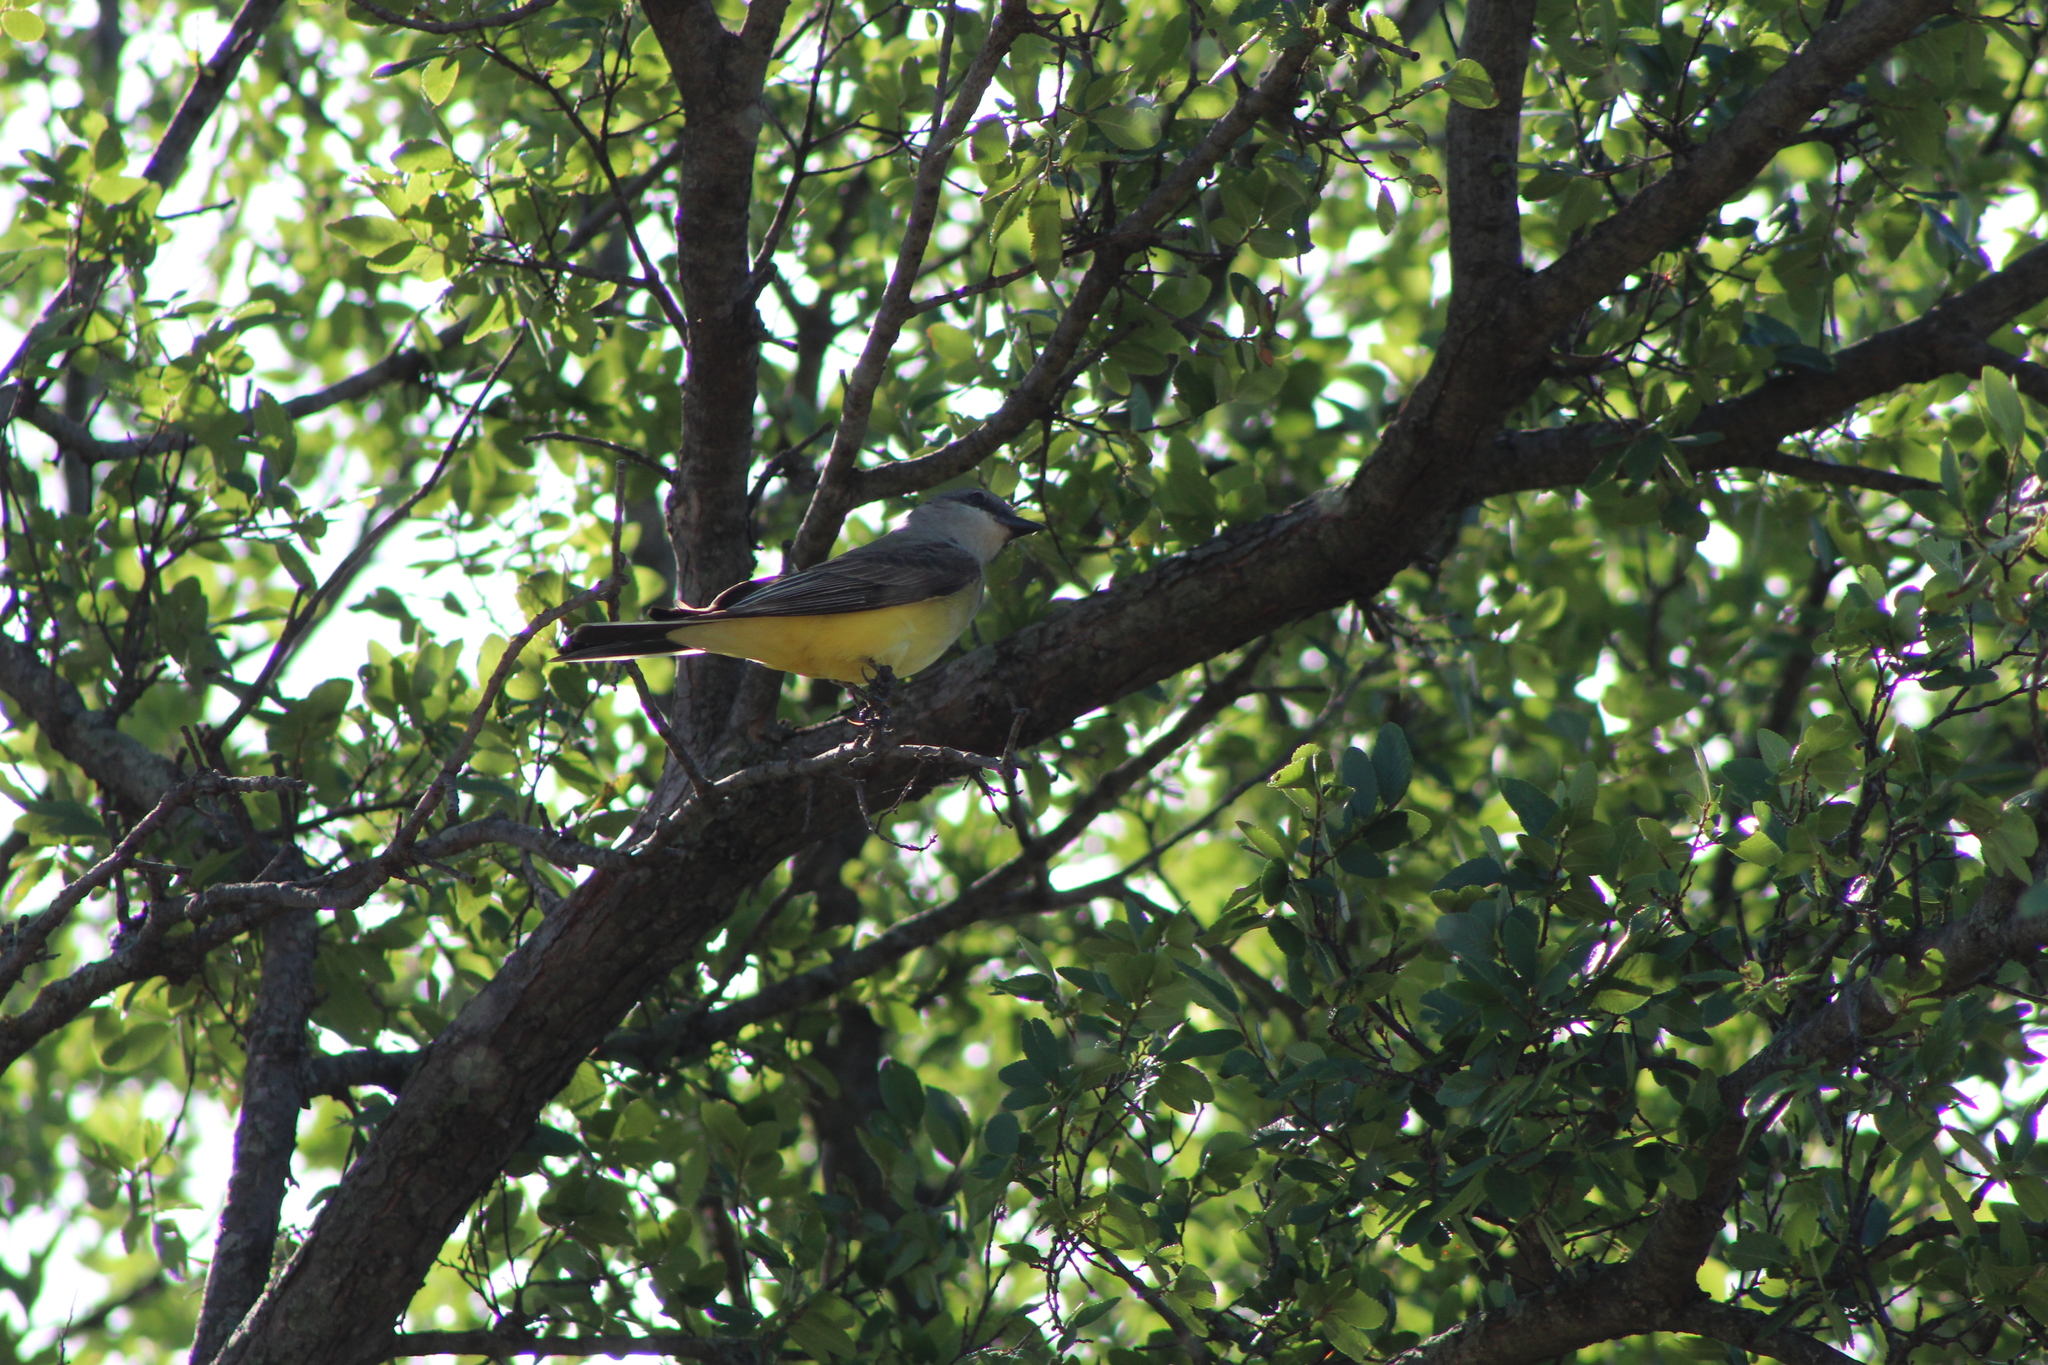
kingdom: Animalia
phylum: Chordata
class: Aves
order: Passeriformes
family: Tyrannidae
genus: Tyrannus
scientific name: Tyrannus verticalis
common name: Western kingbird
